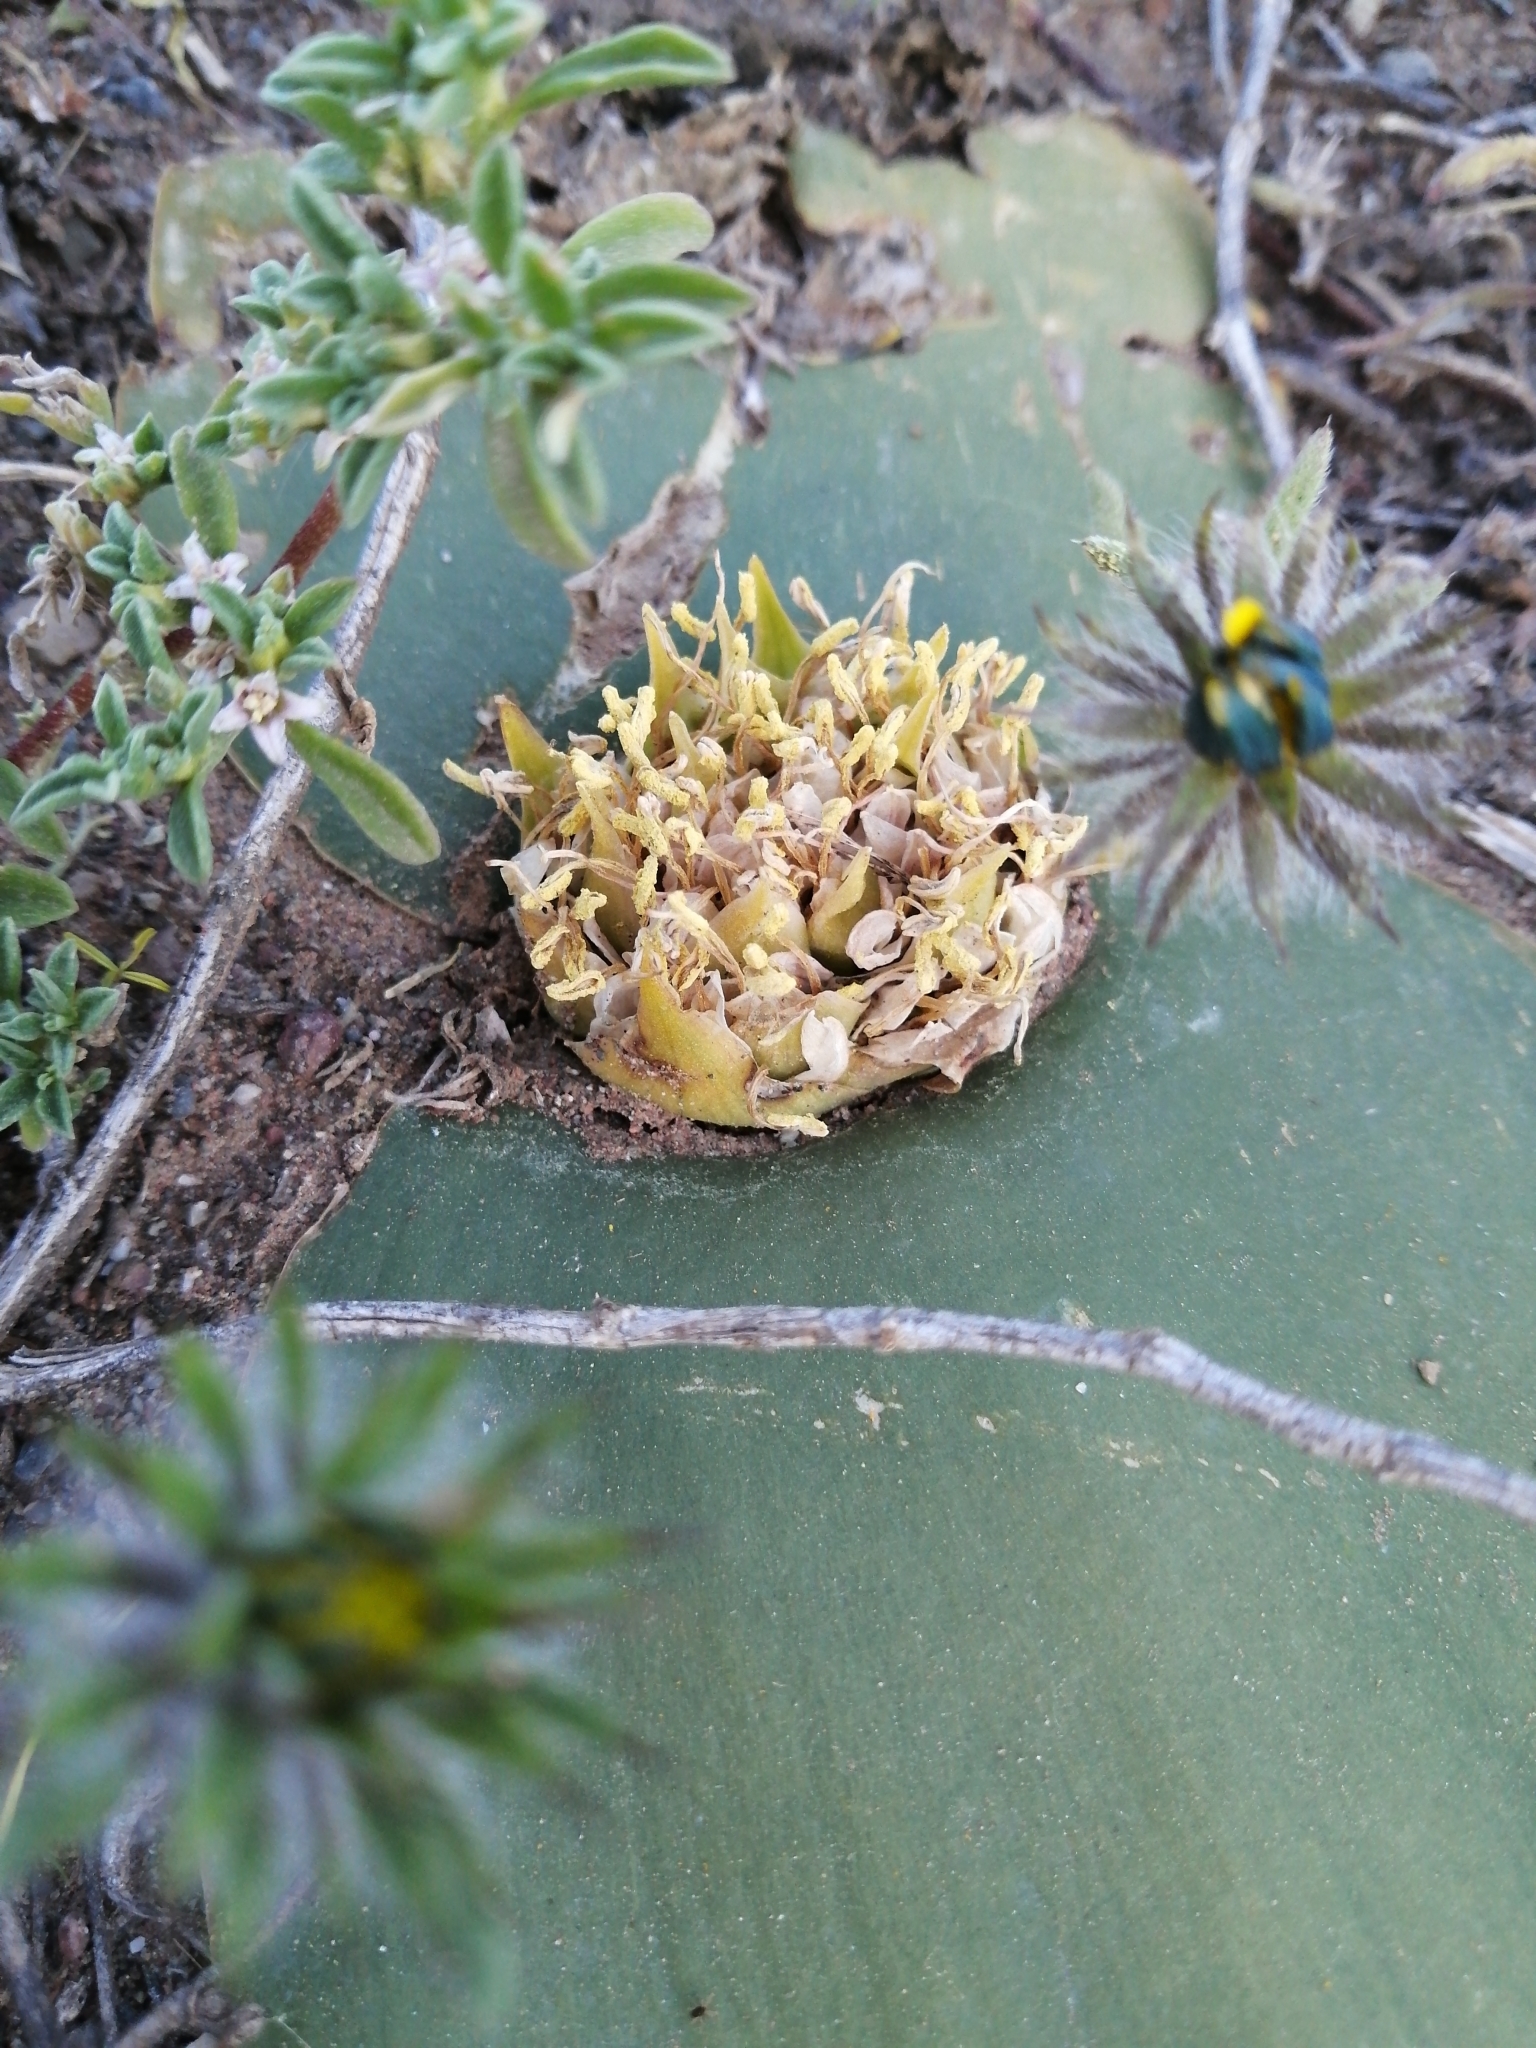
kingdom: Plantae
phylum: Tracheophyta
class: Liliopsida
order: Asparagales
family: Asparagaceae
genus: Massonia
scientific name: Massonia depressa
